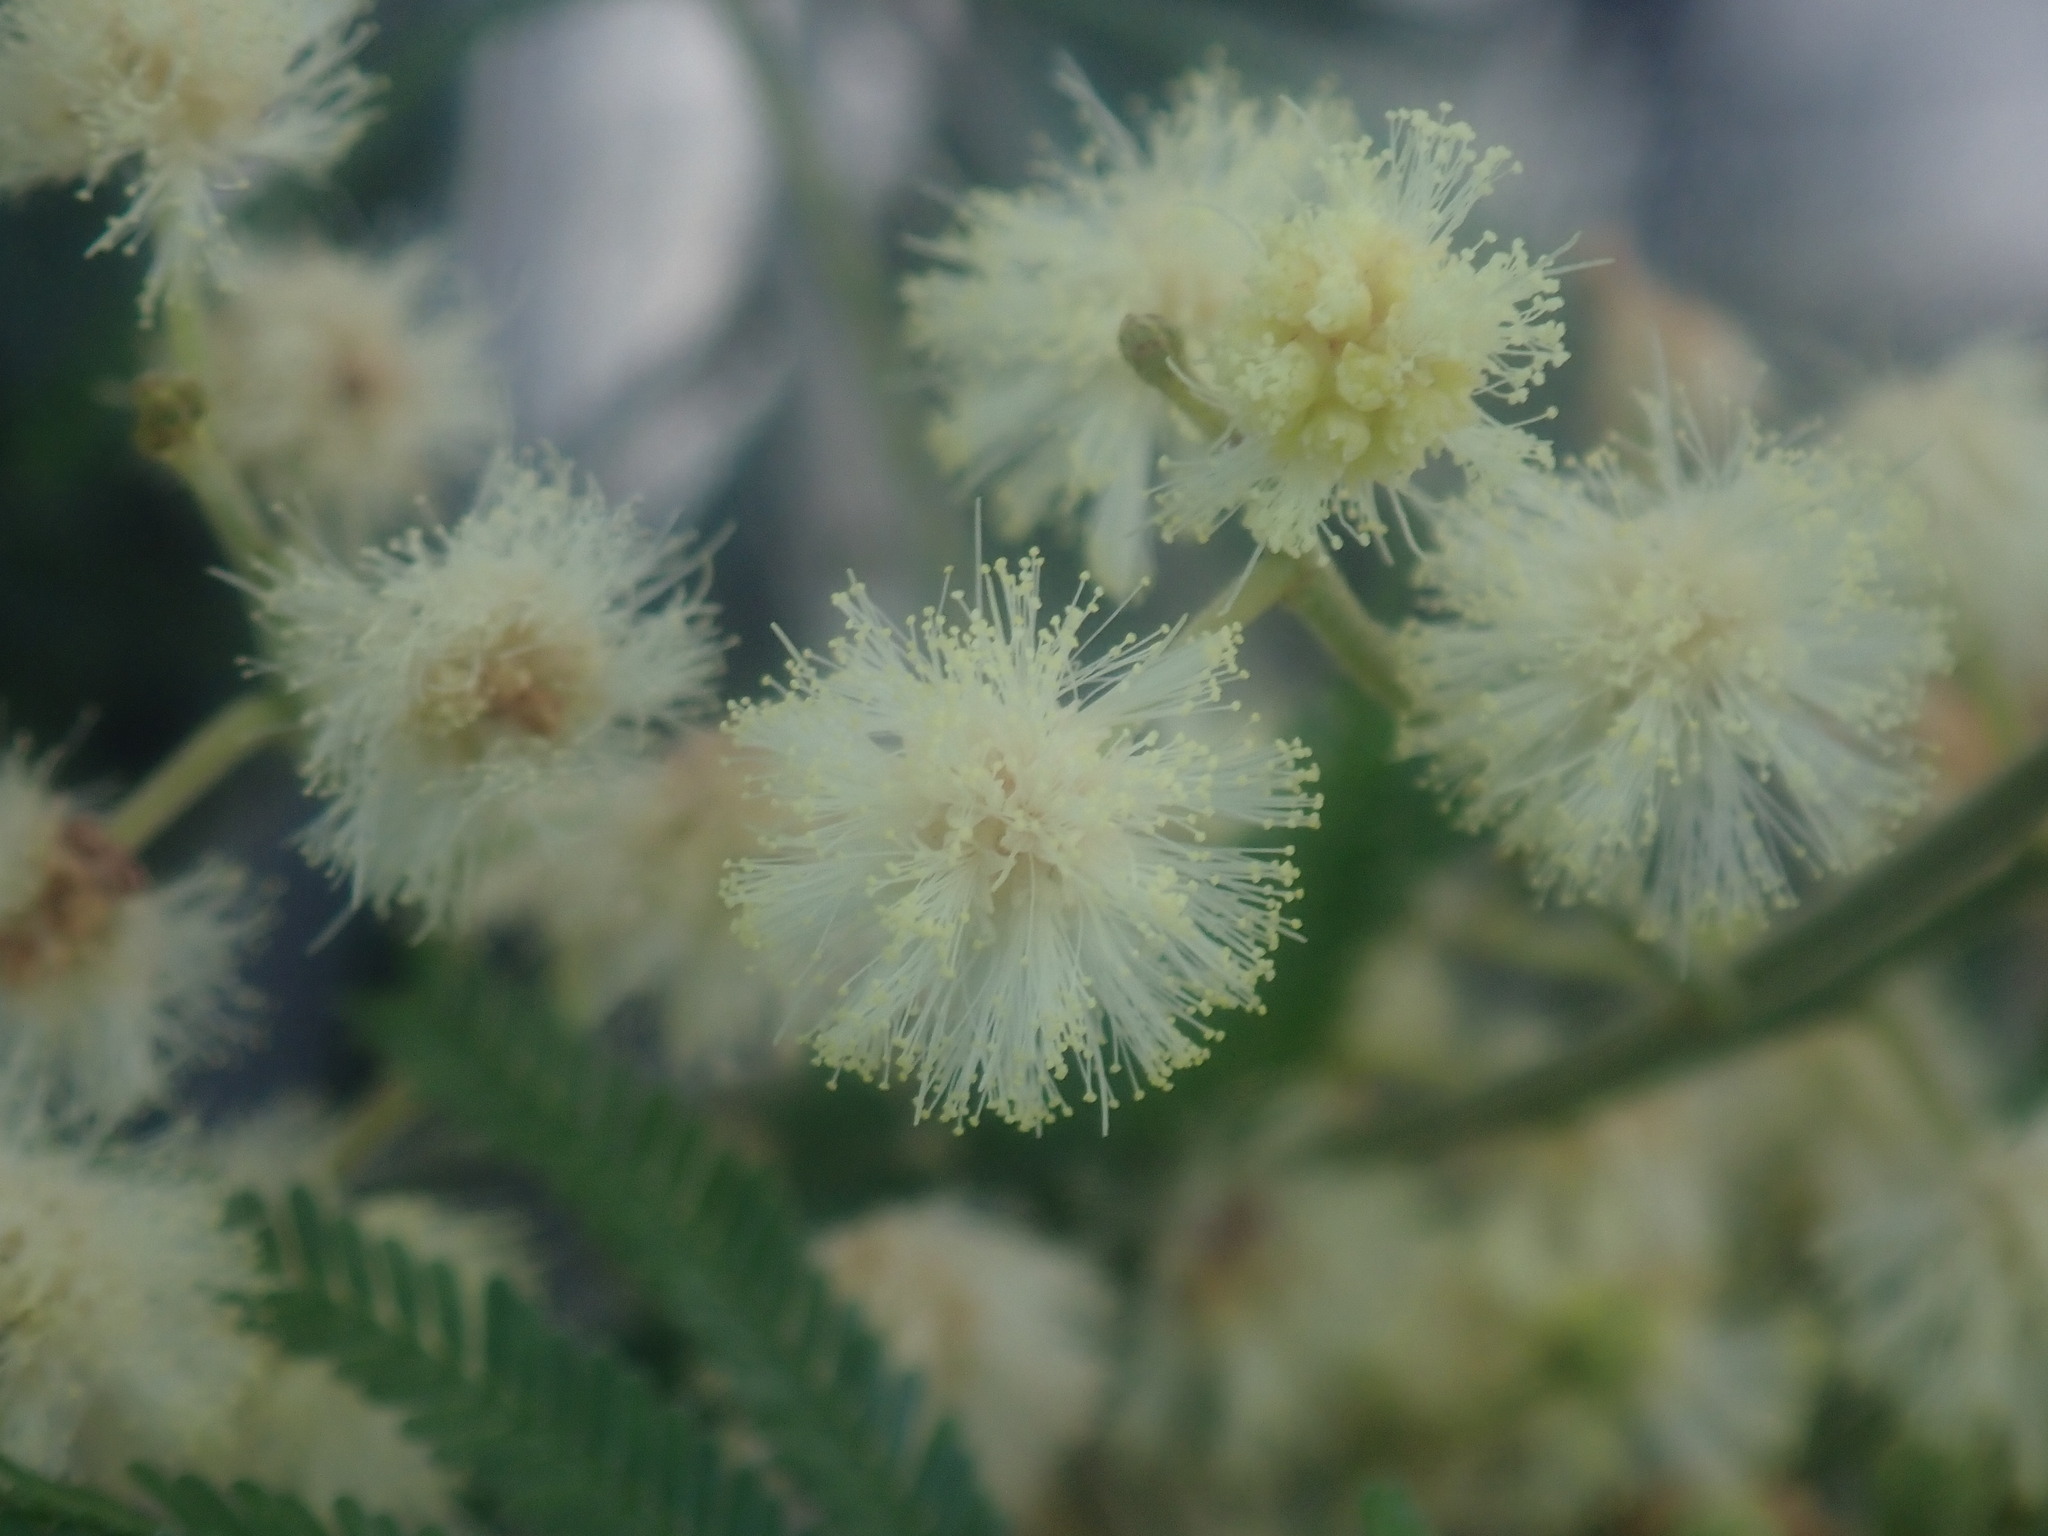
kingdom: Plantae
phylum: Tracheophyta
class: Magnoliopsida
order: Fabales
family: Fabaceae
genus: Acacia
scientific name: Acacia mearnsii
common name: Black wattle
